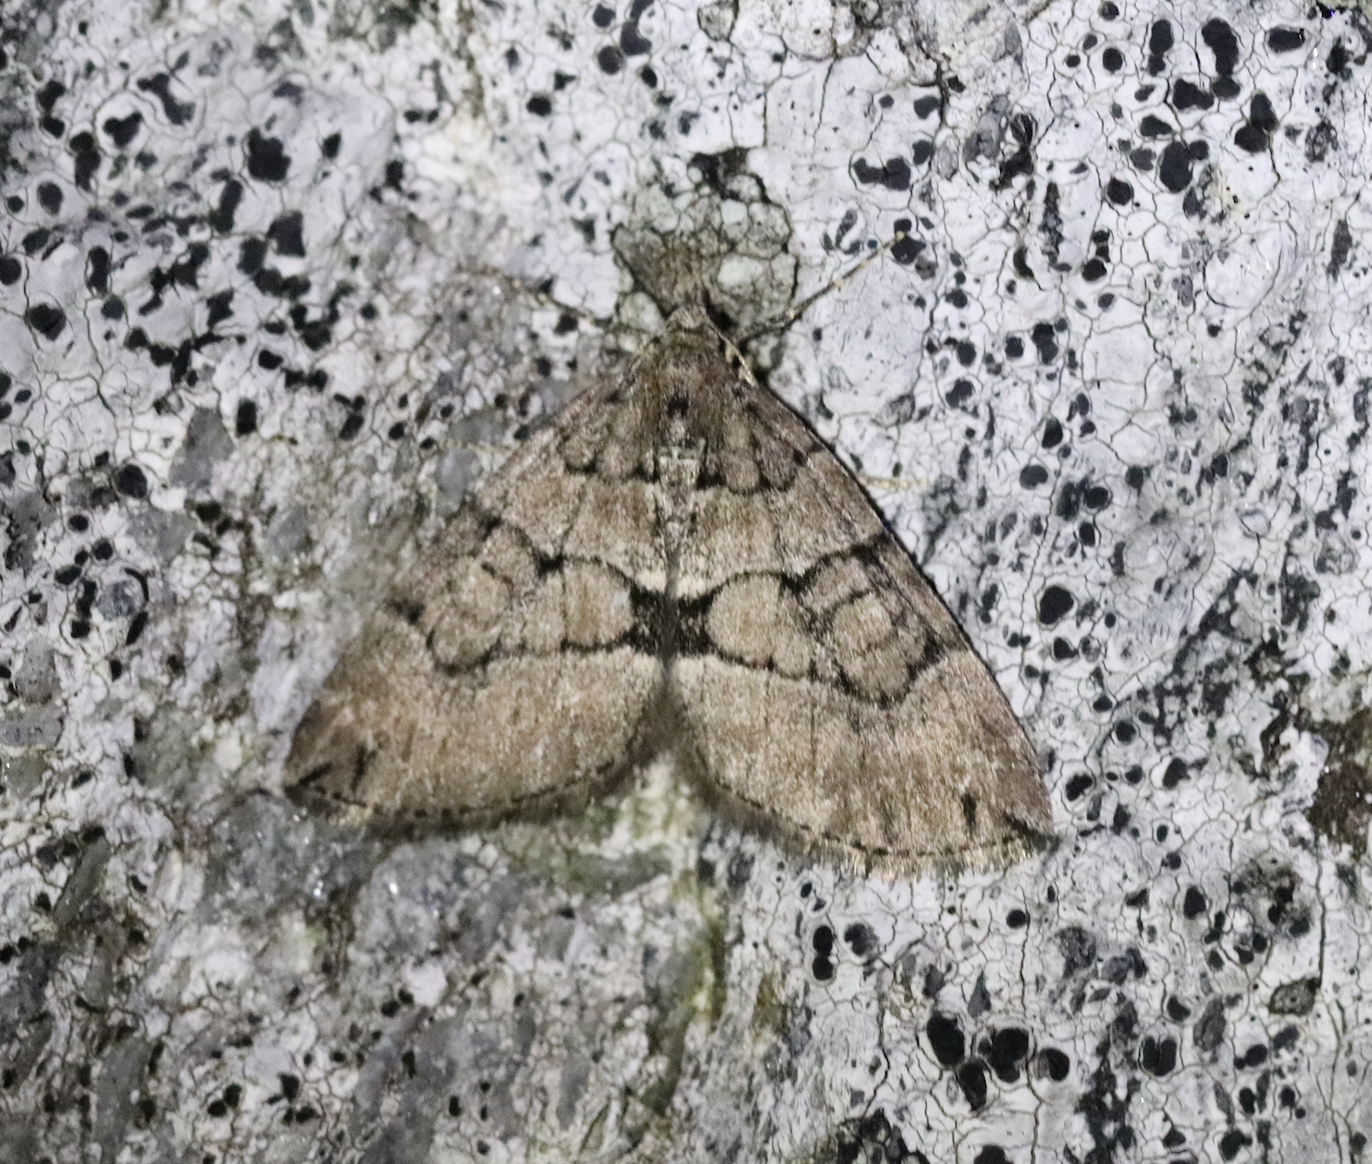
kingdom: Animalia
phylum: Arthropoda
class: Insecta
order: Lepidoptera
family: Geometridae
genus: Thera
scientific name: Thera cognata
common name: Chestnut-coloured carpet
